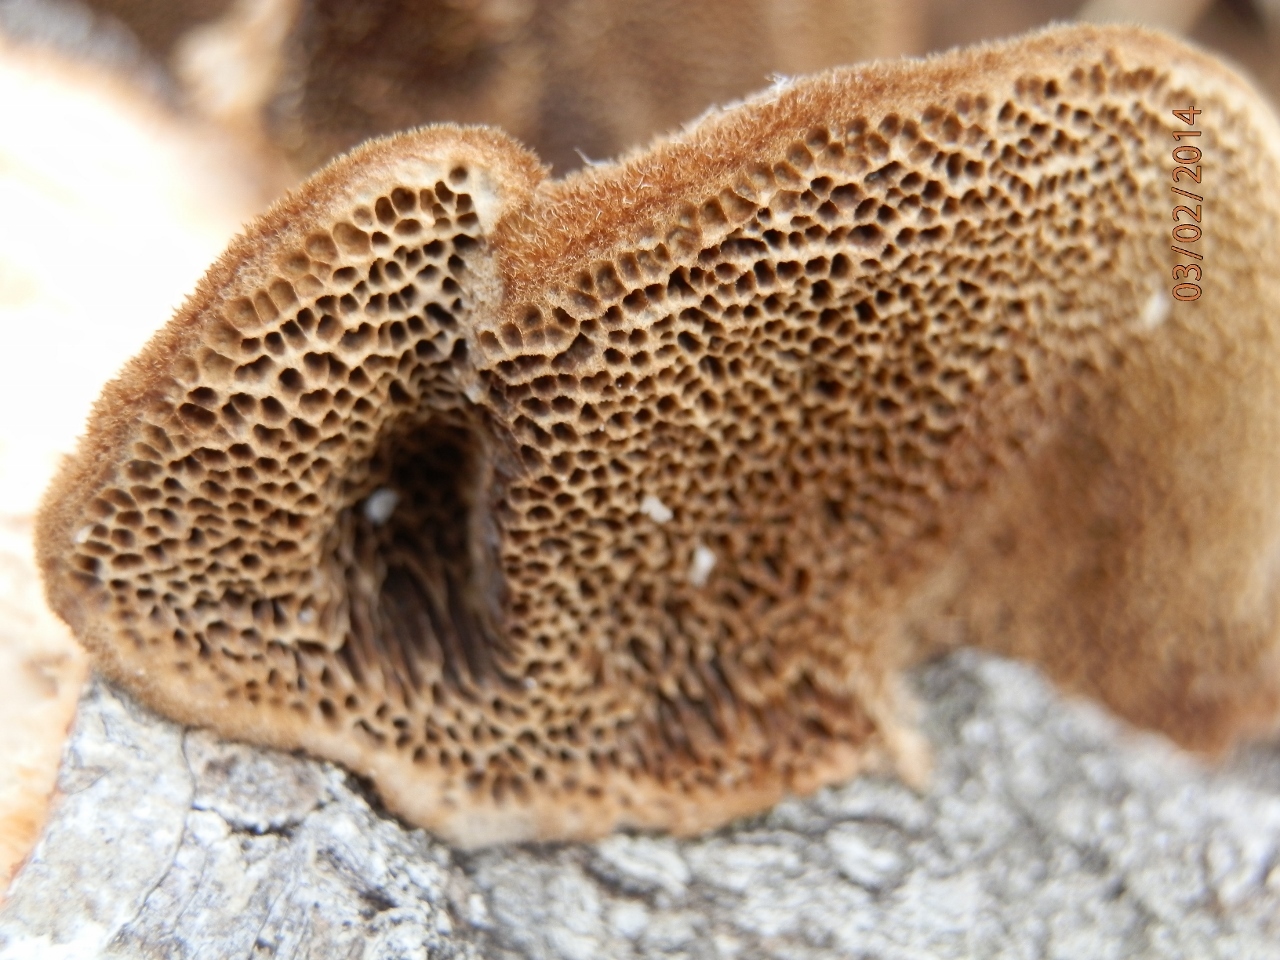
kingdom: Fungi
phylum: Basidiomycota
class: Agaricomycetes
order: Polyporales
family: Polyporaceae
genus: Coriolopsis
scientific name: Coriolopsis gallica
